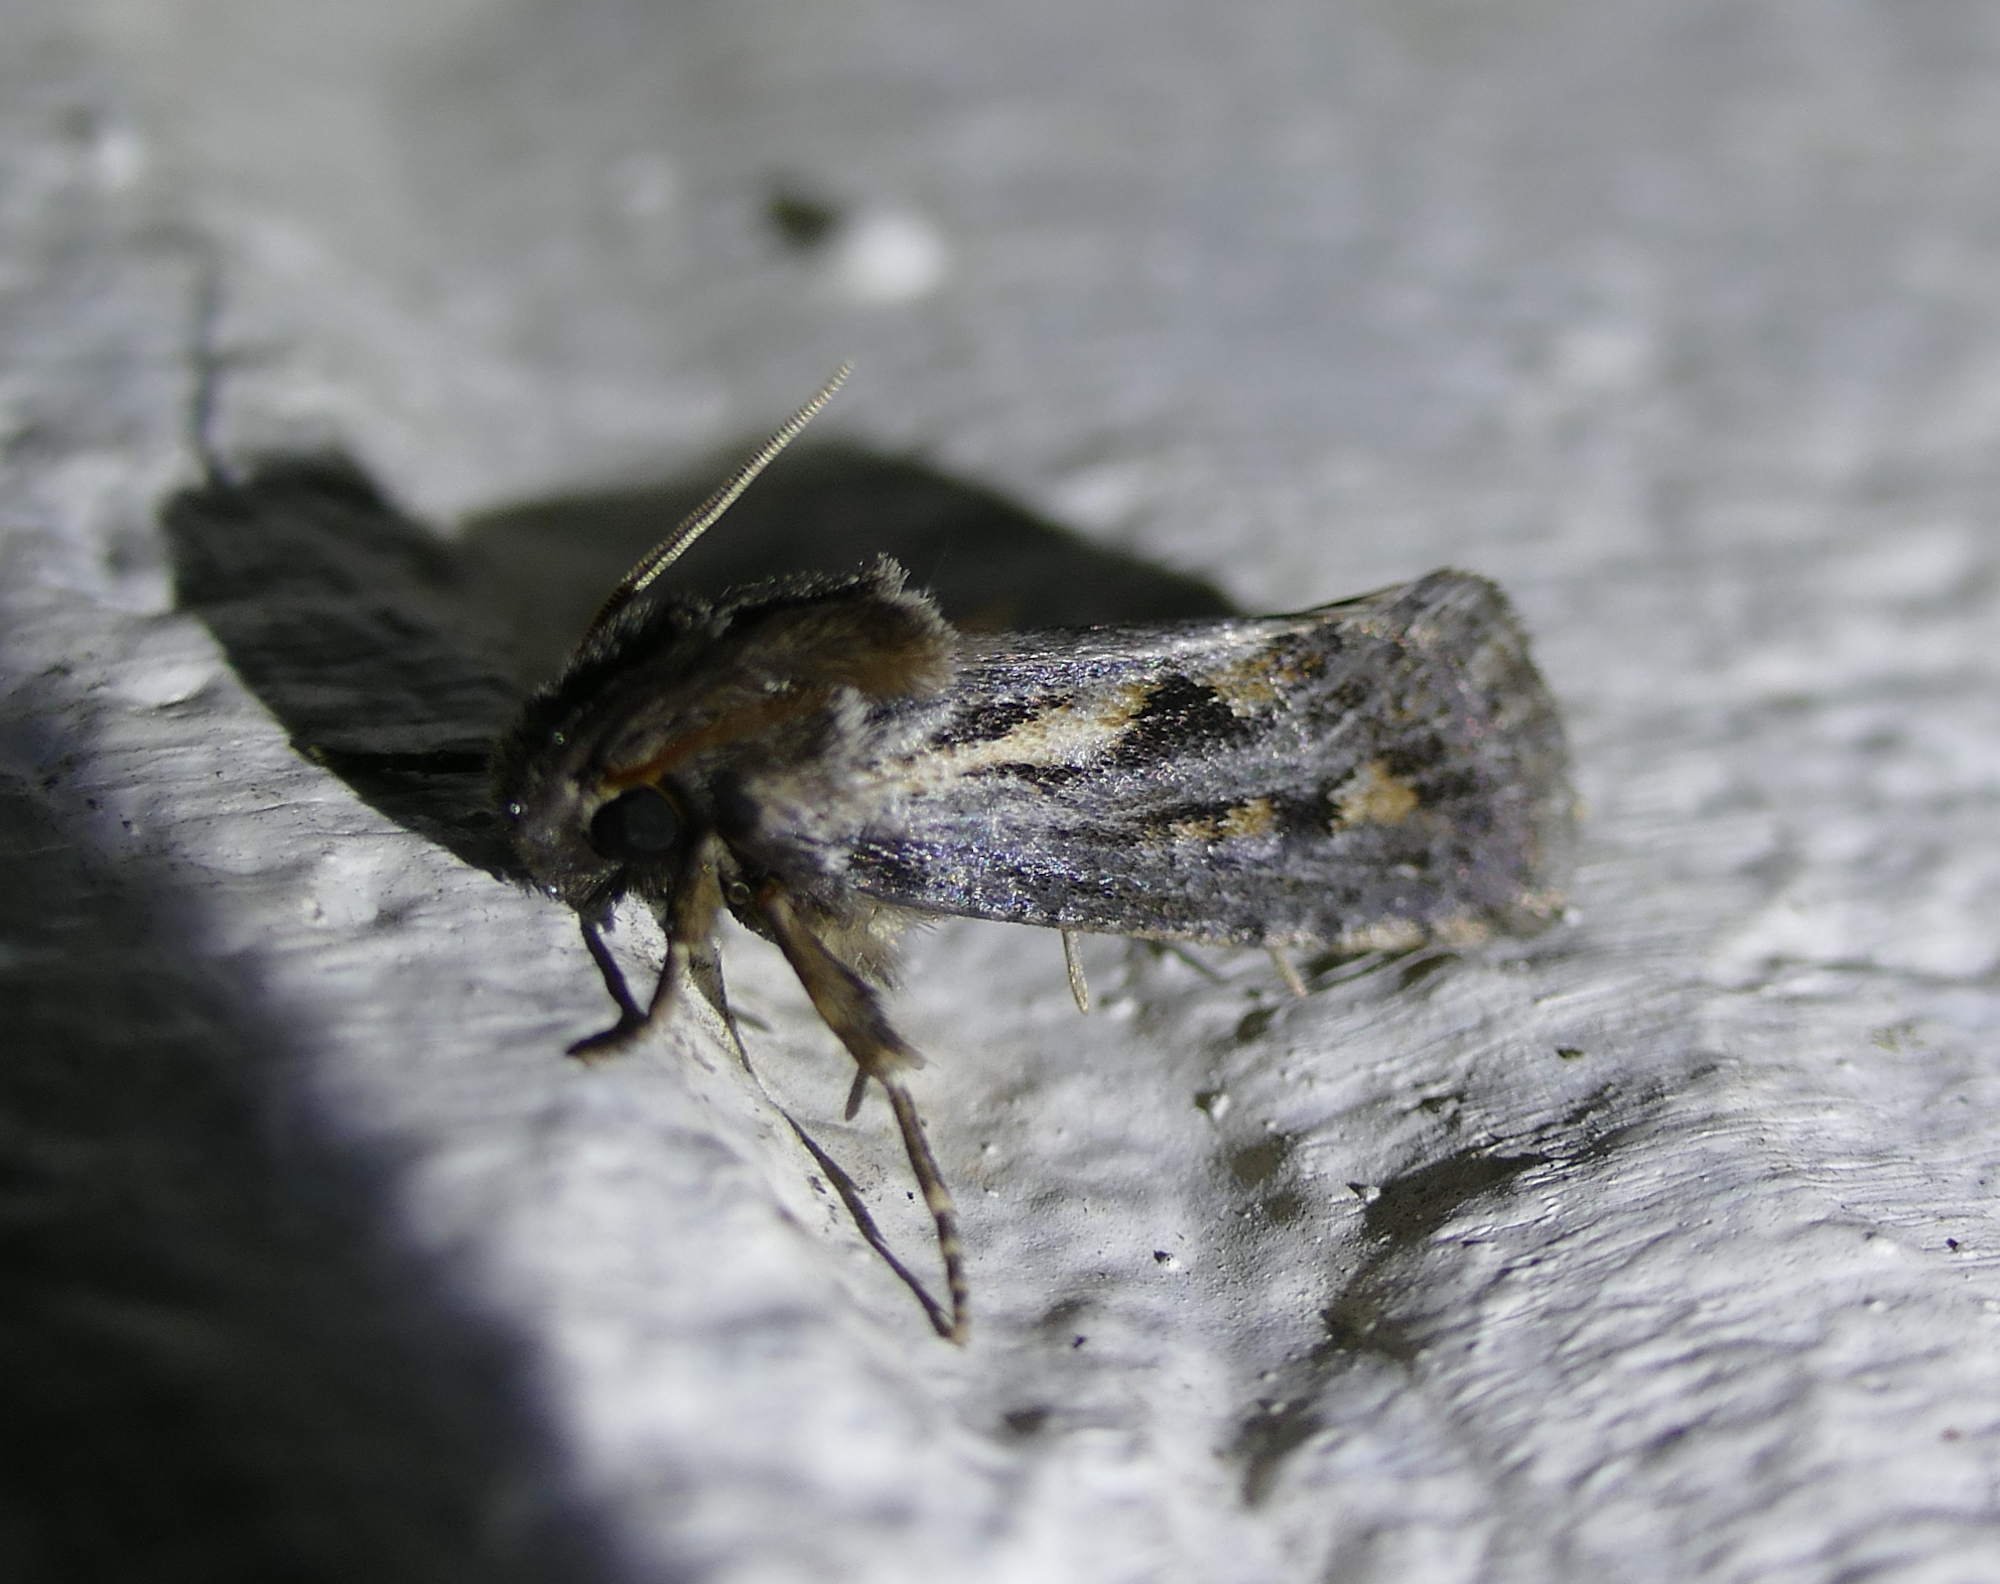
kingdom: Animalia
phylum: Arthropoda
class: Insecta
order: Lepidoptera
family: Tineidae
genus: Acrolophus
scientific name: Acrolophus popeanella
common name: Clemens' grass tubeworm moth
